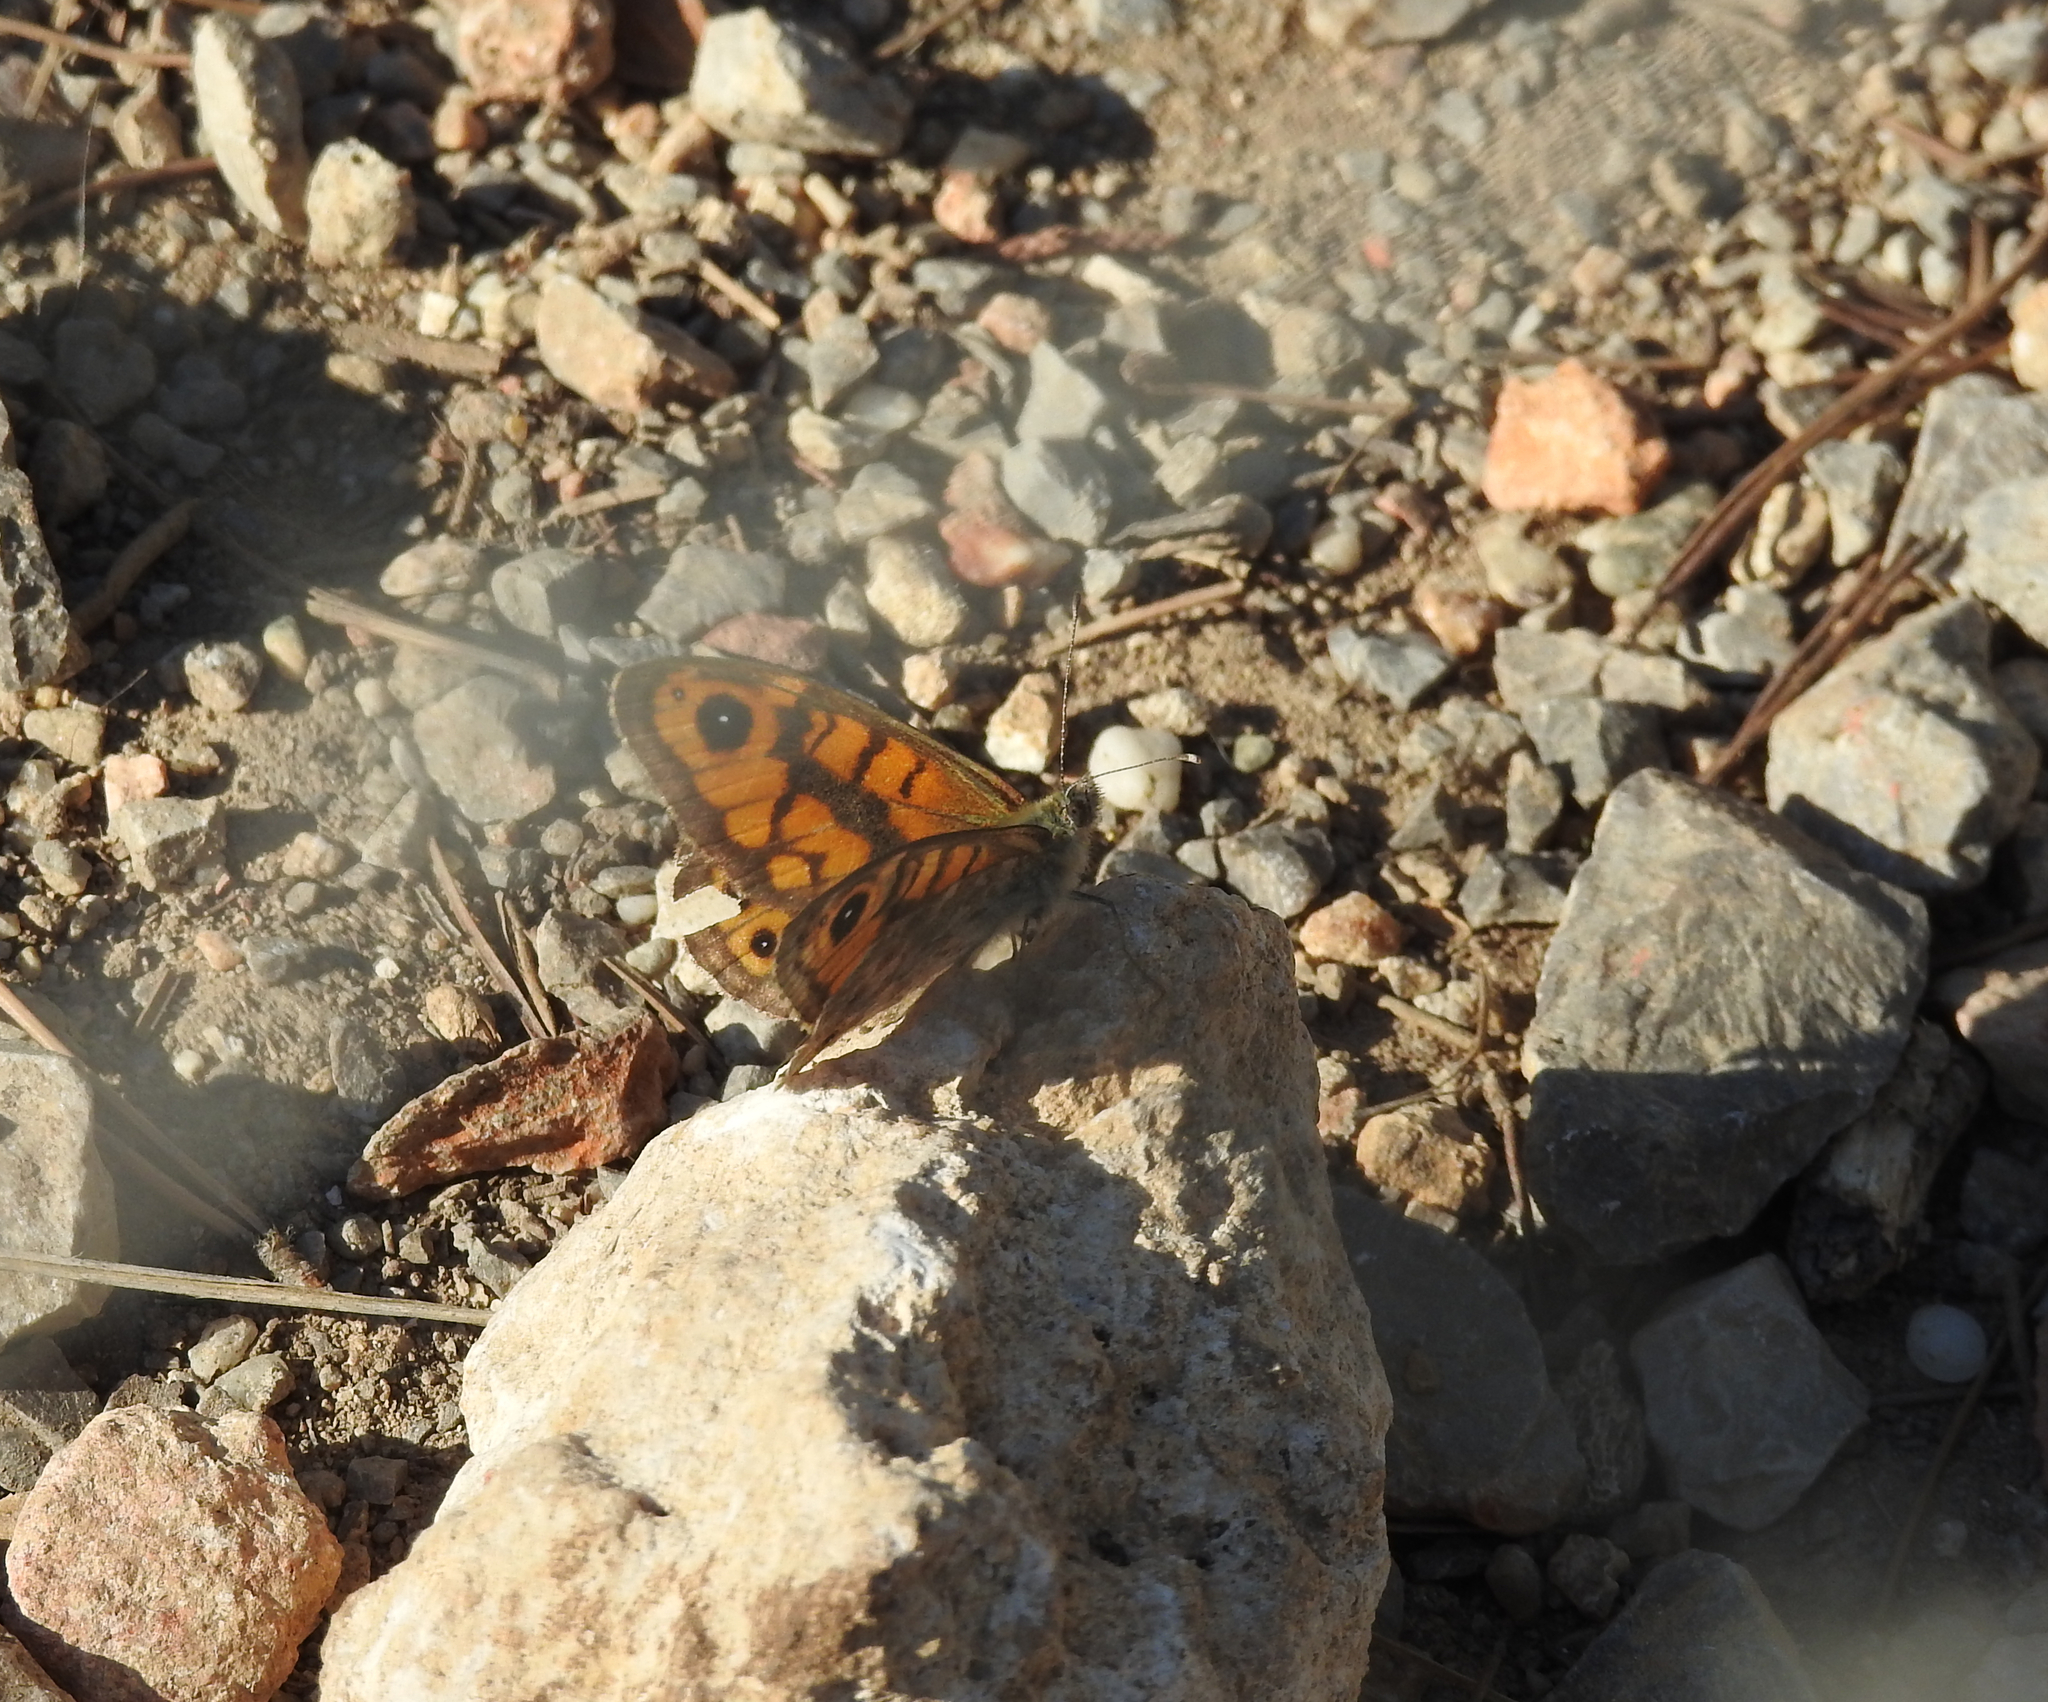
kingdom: Animalia
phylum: Arthropoda
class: Insecta
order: Lepidoptera
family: Nymphalidae
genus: Pararge
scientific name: Pararge Lasiommata megera
